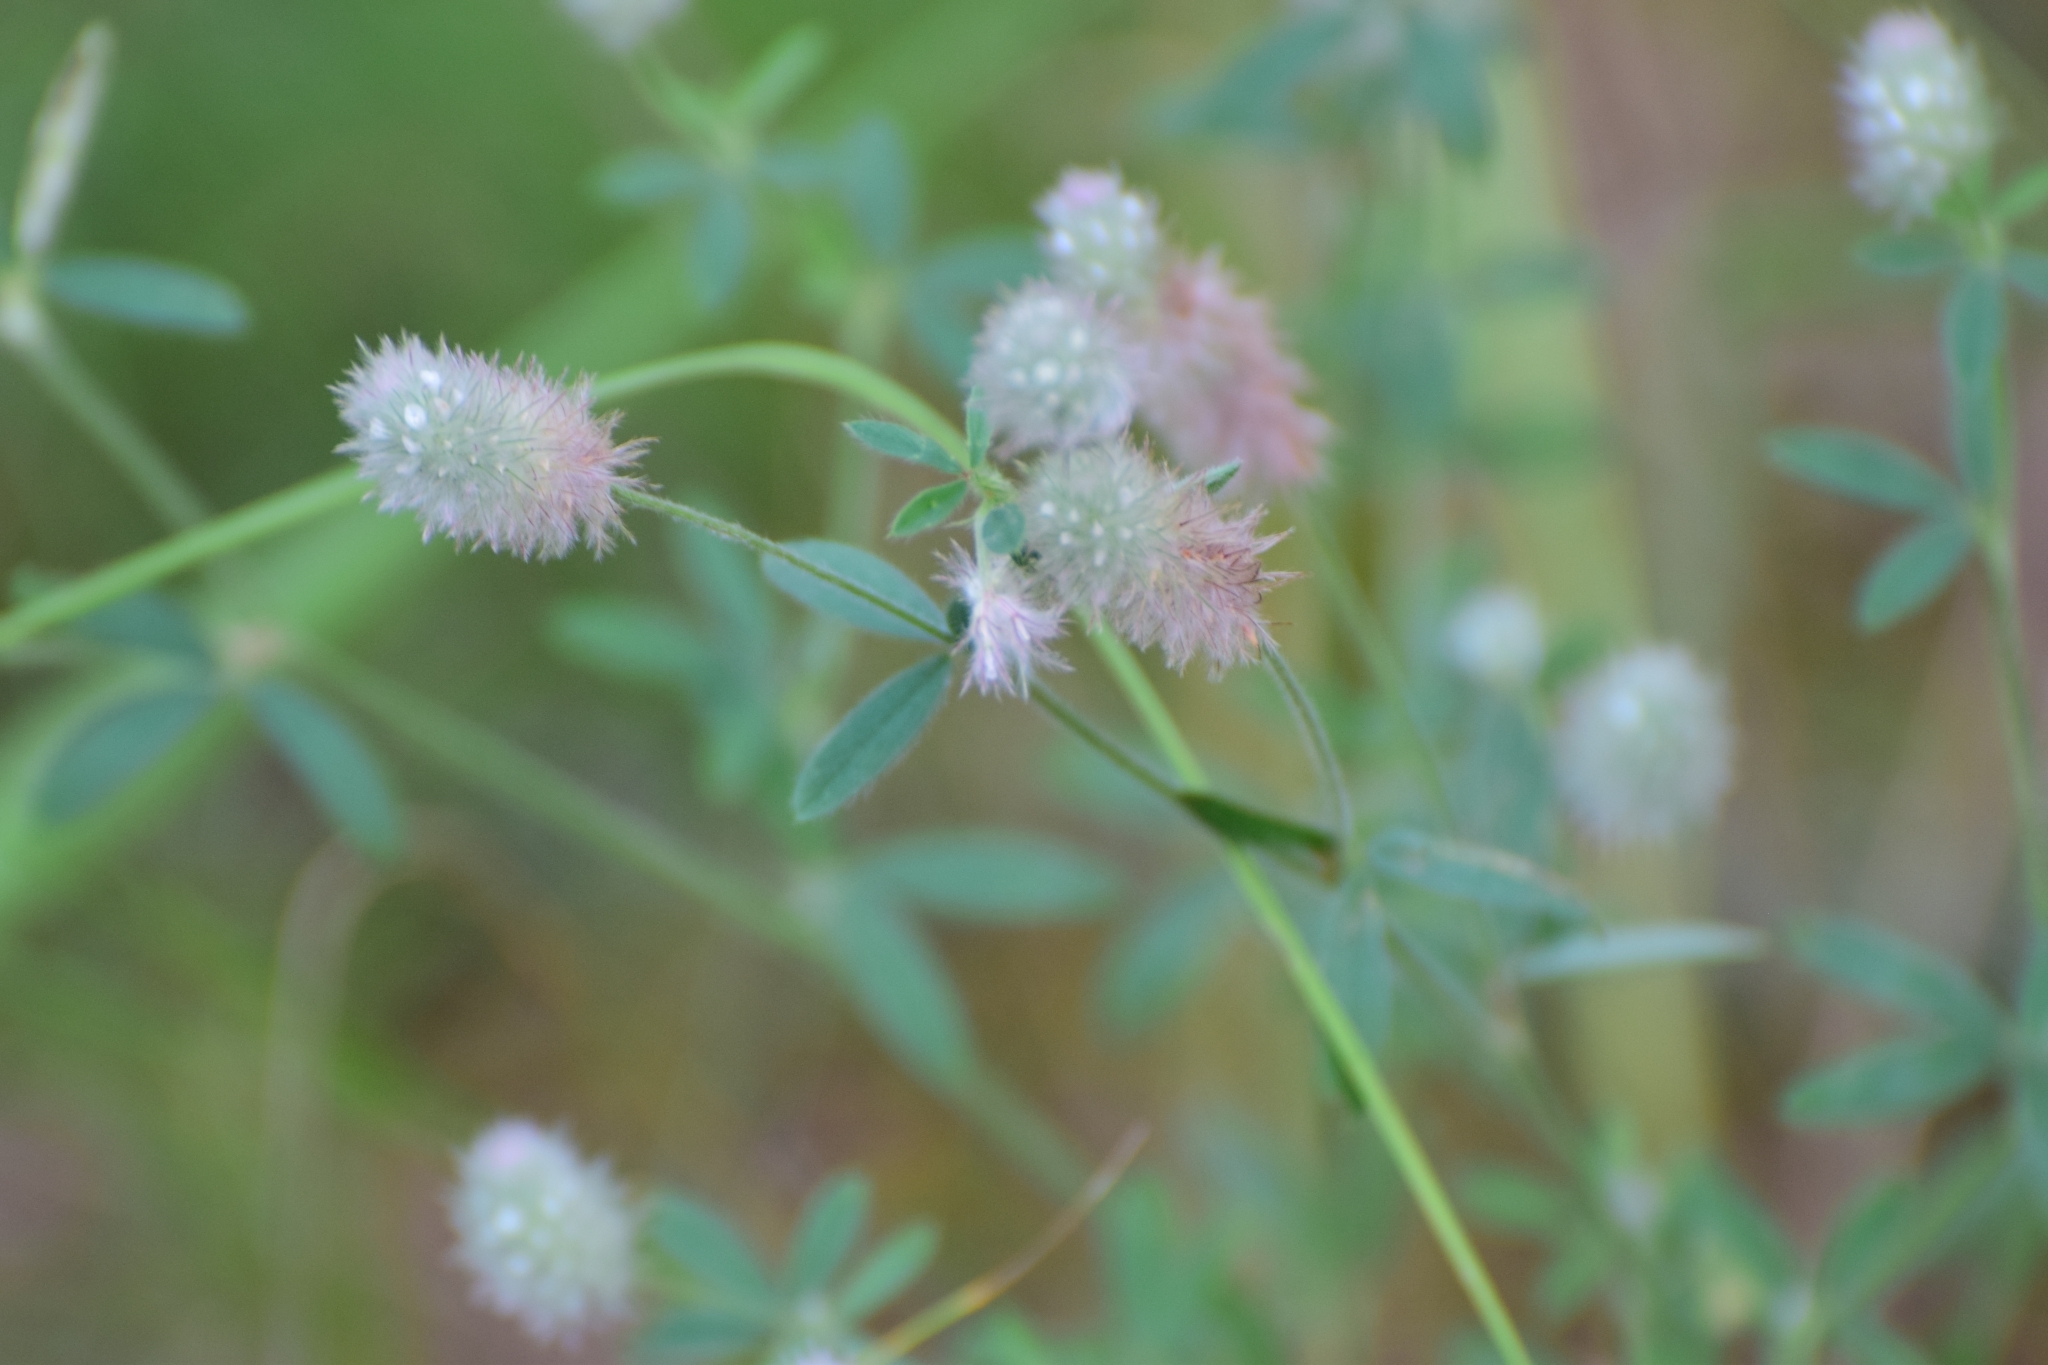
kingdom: Plantae
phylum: Tracheophyta
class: Magnoliopsida
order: Fabales
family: Fabaceae
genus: Trifolium
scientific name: Trifolium arvense
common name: Hare's-foot clover
